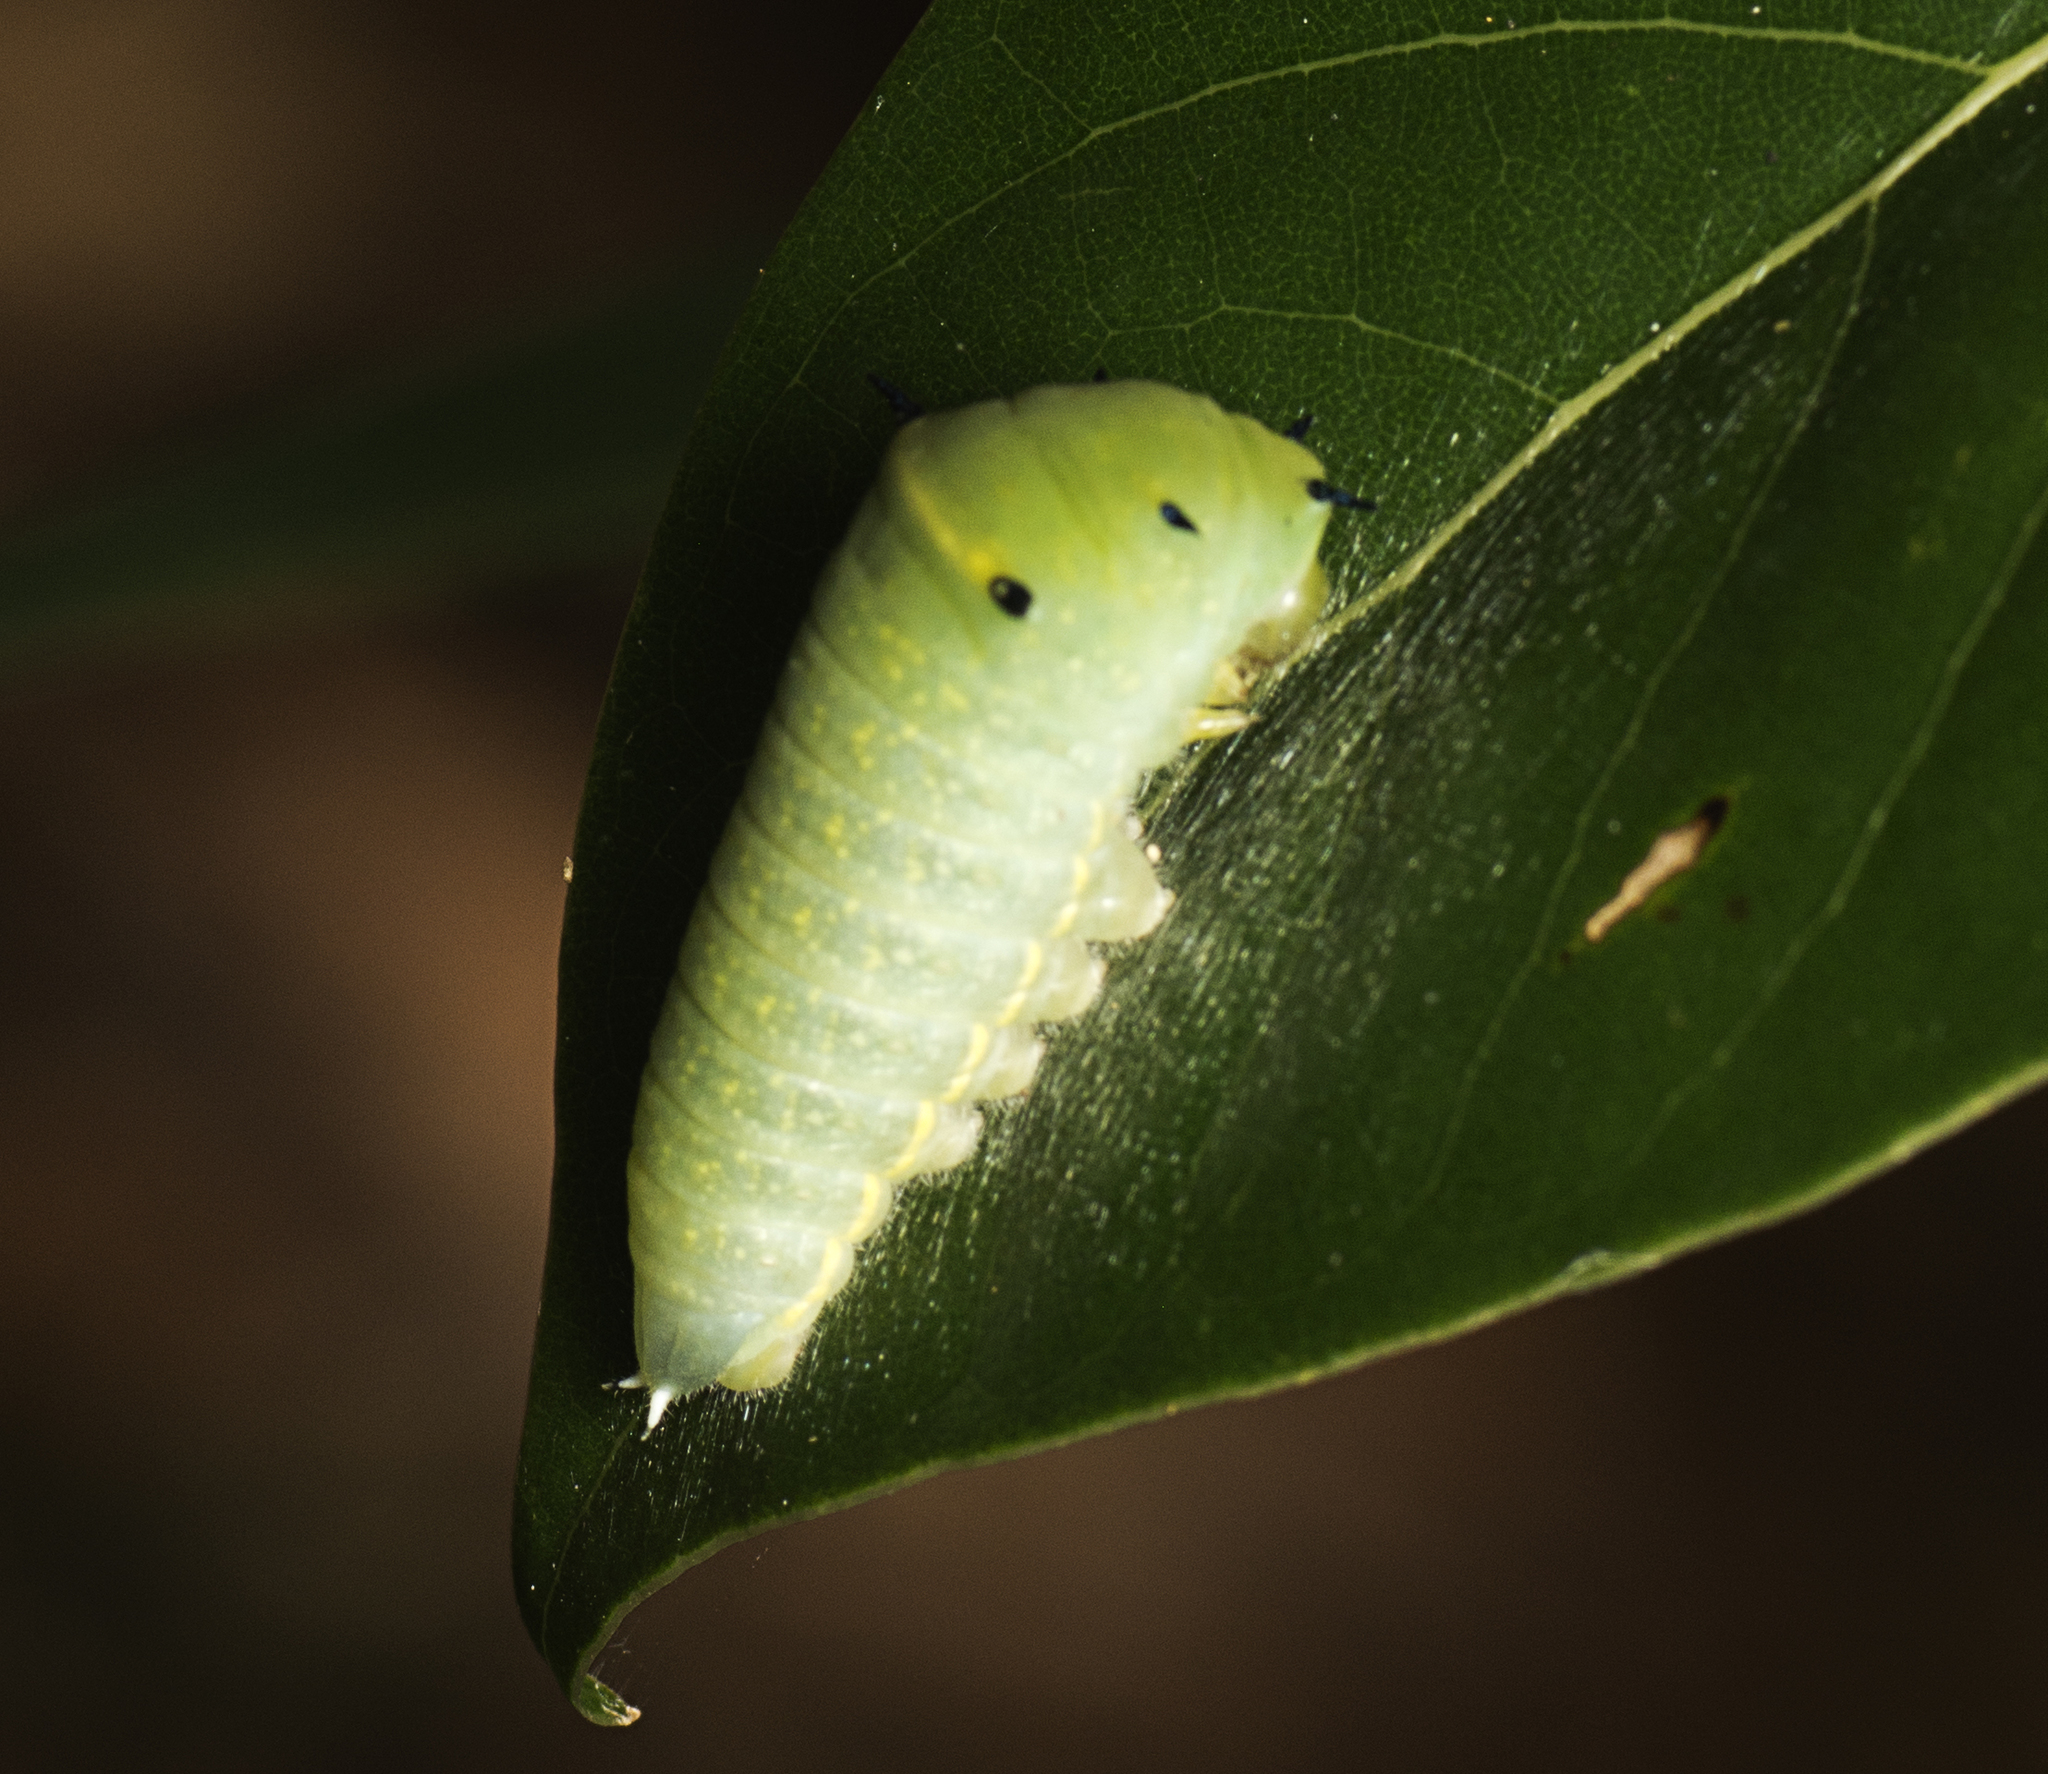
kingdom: Animalia
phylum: Arthropoda
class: Insecta
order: Lepidoptera
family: Papilionidae
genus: Graphium
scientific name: Graphium
